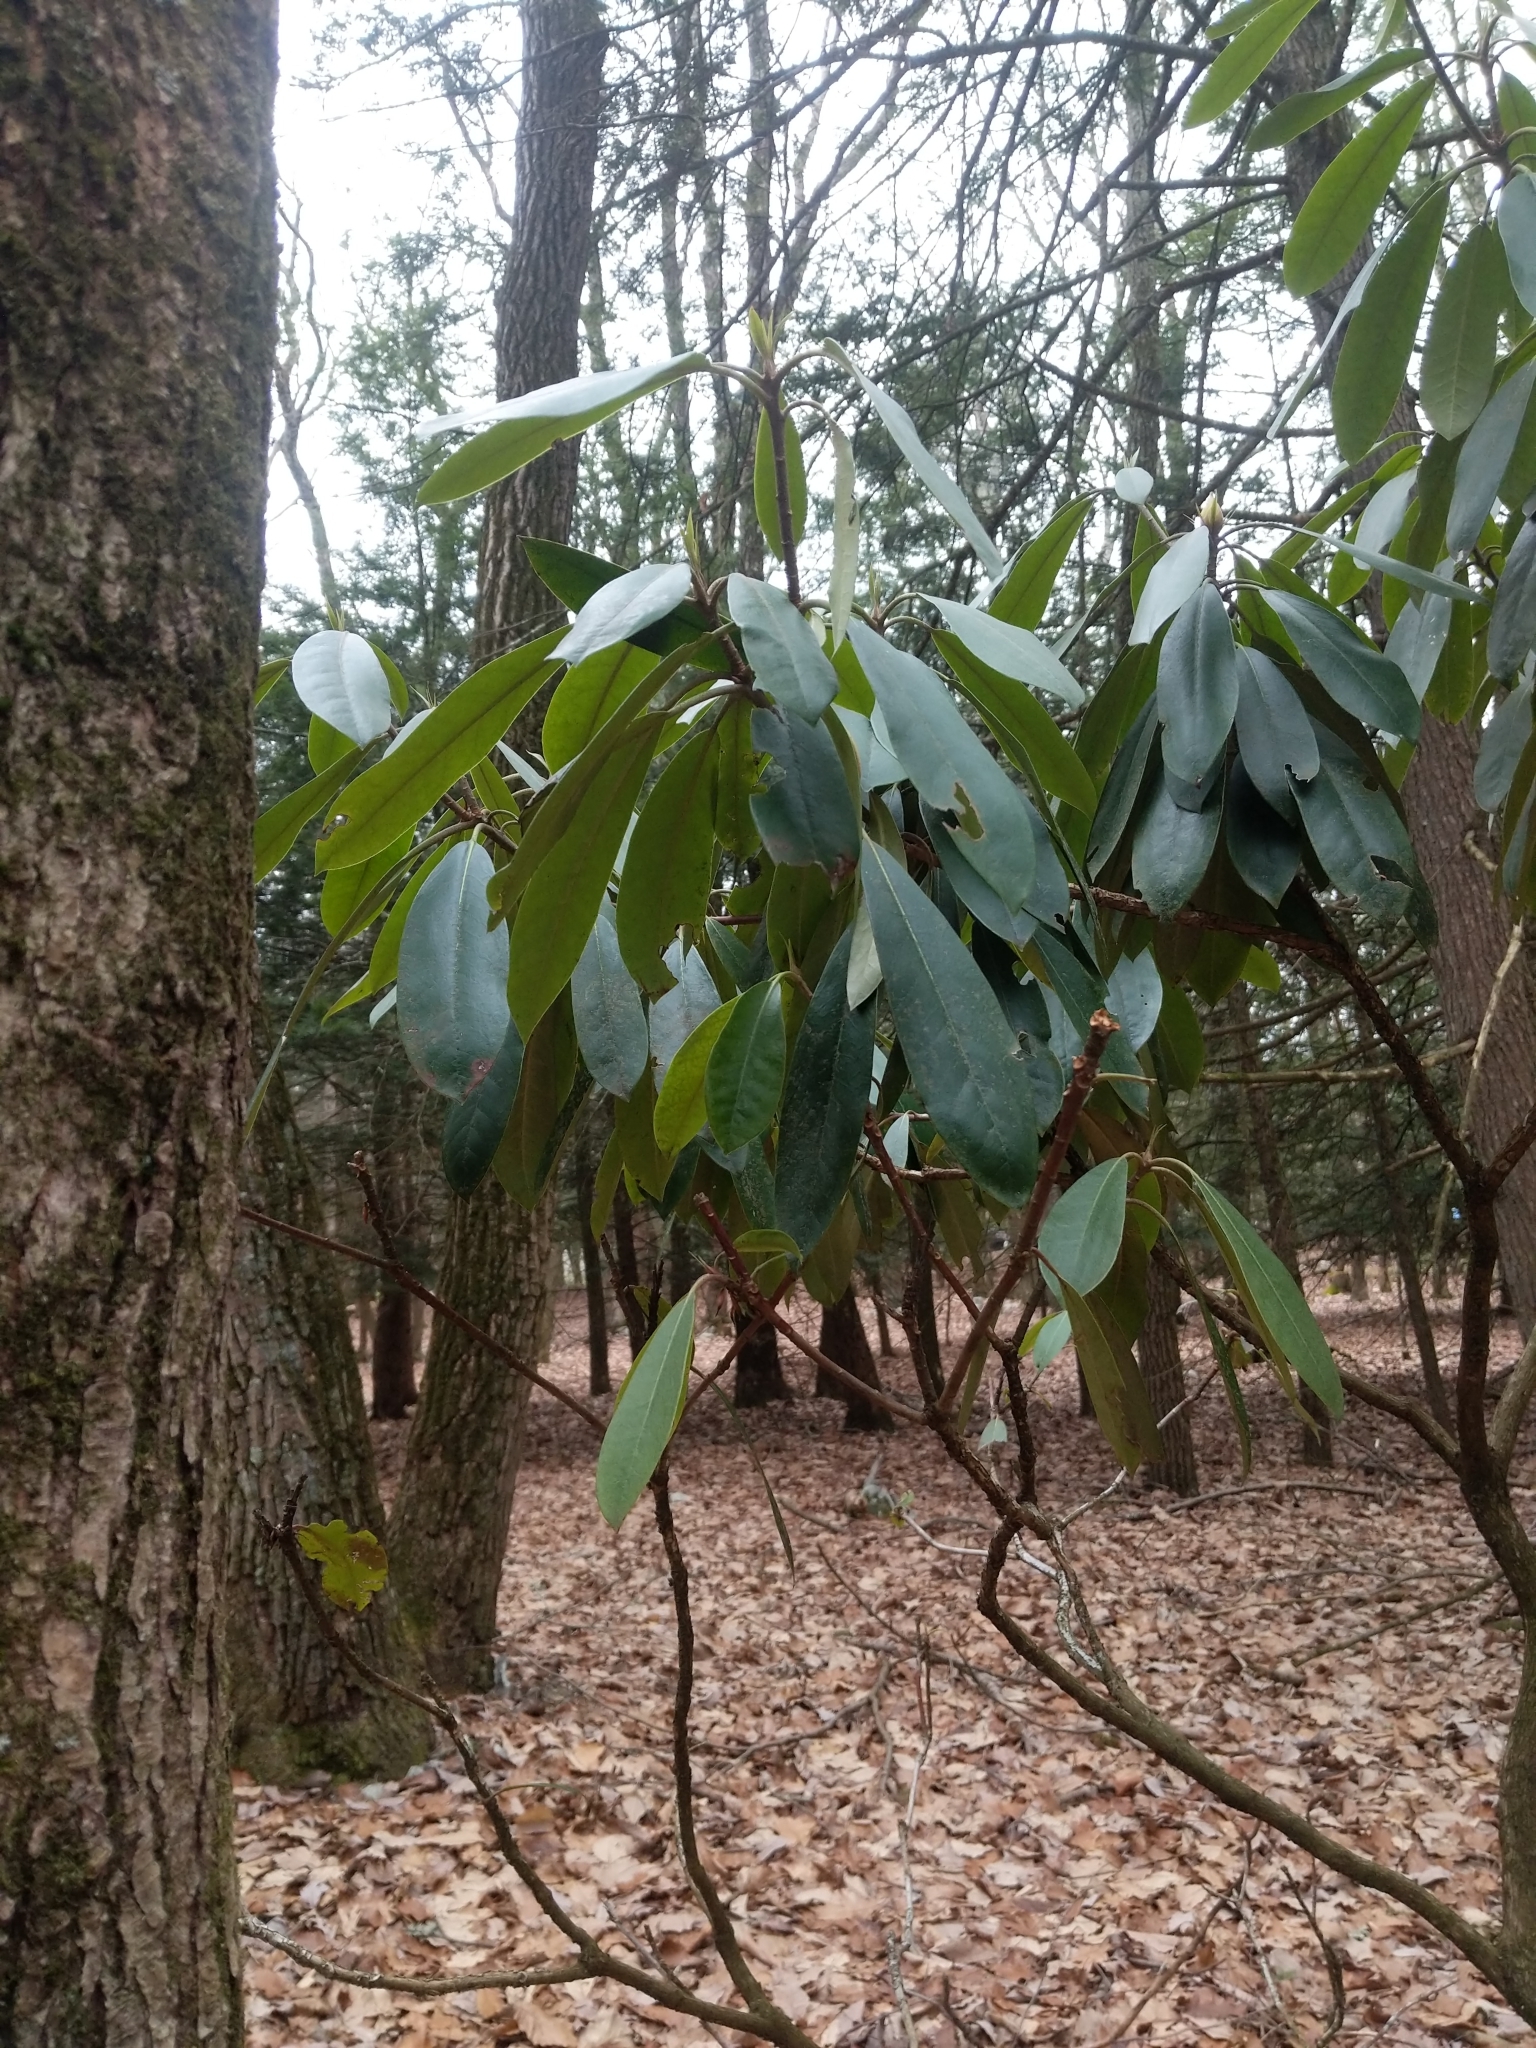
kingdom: Plantae
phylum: Tracheophyta
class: Magnoliopsida
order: Ericales
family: Ericaceae
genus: Rhododendron
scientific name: Rhododendron maximum
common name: Great rhododendron
